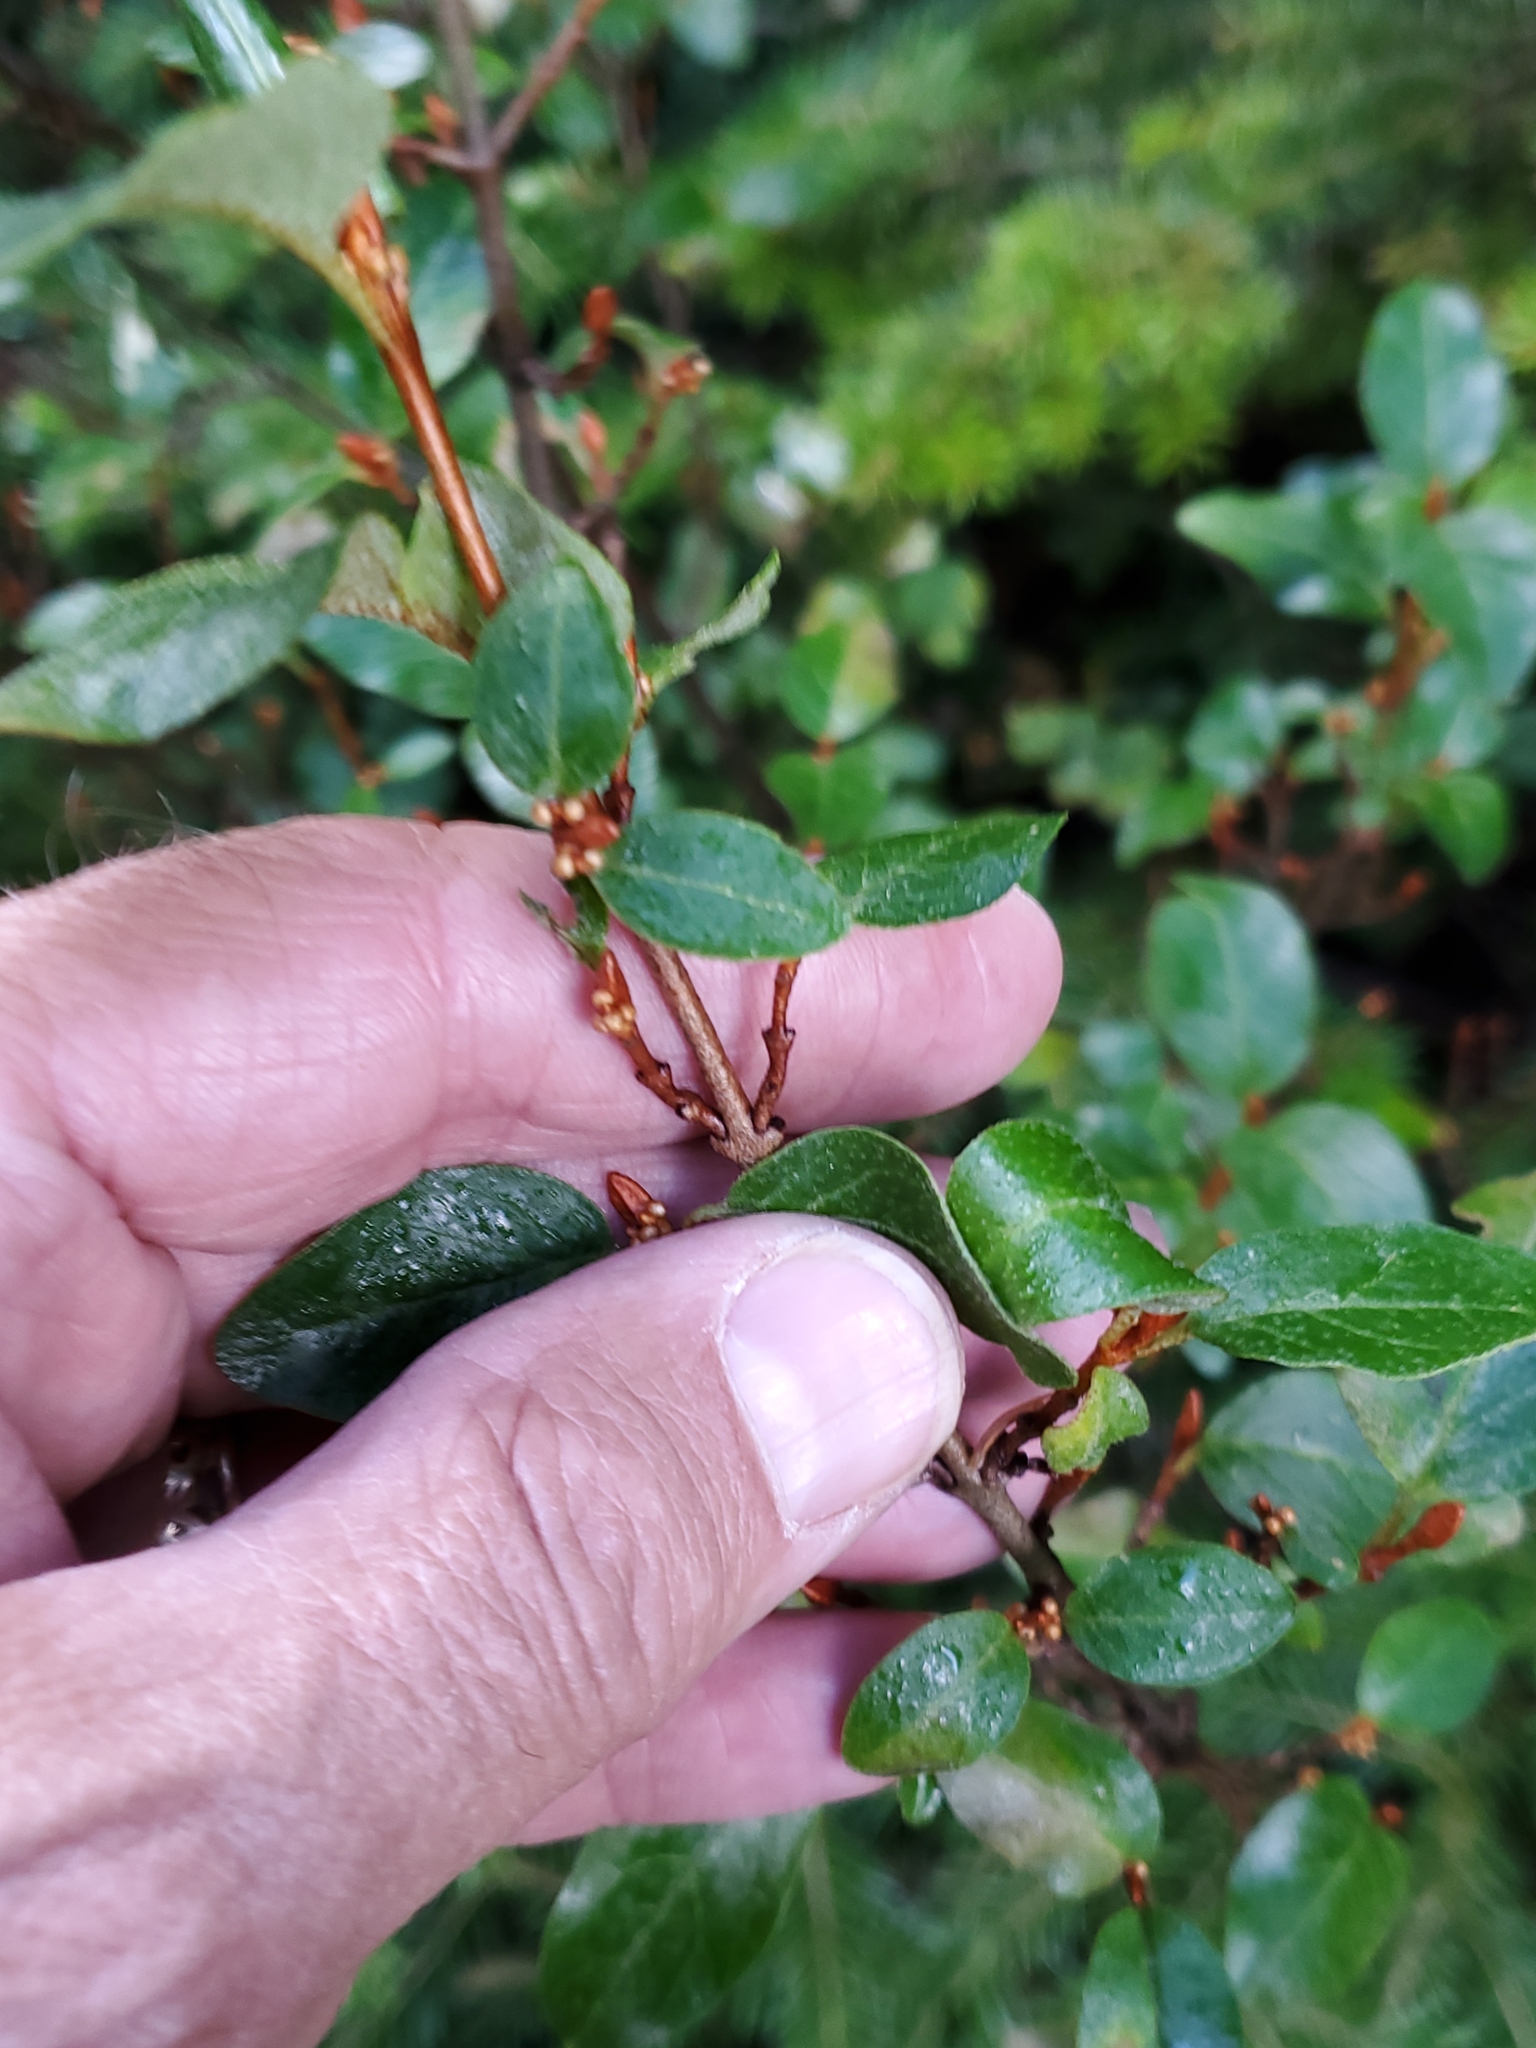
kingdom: Plantae
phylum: Tracheophyta
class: Magnoliopsida
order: Rosales
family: Elaeagnaceae
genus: Shepherdia
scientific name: Shepherdia canadensis
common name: Soapberry
